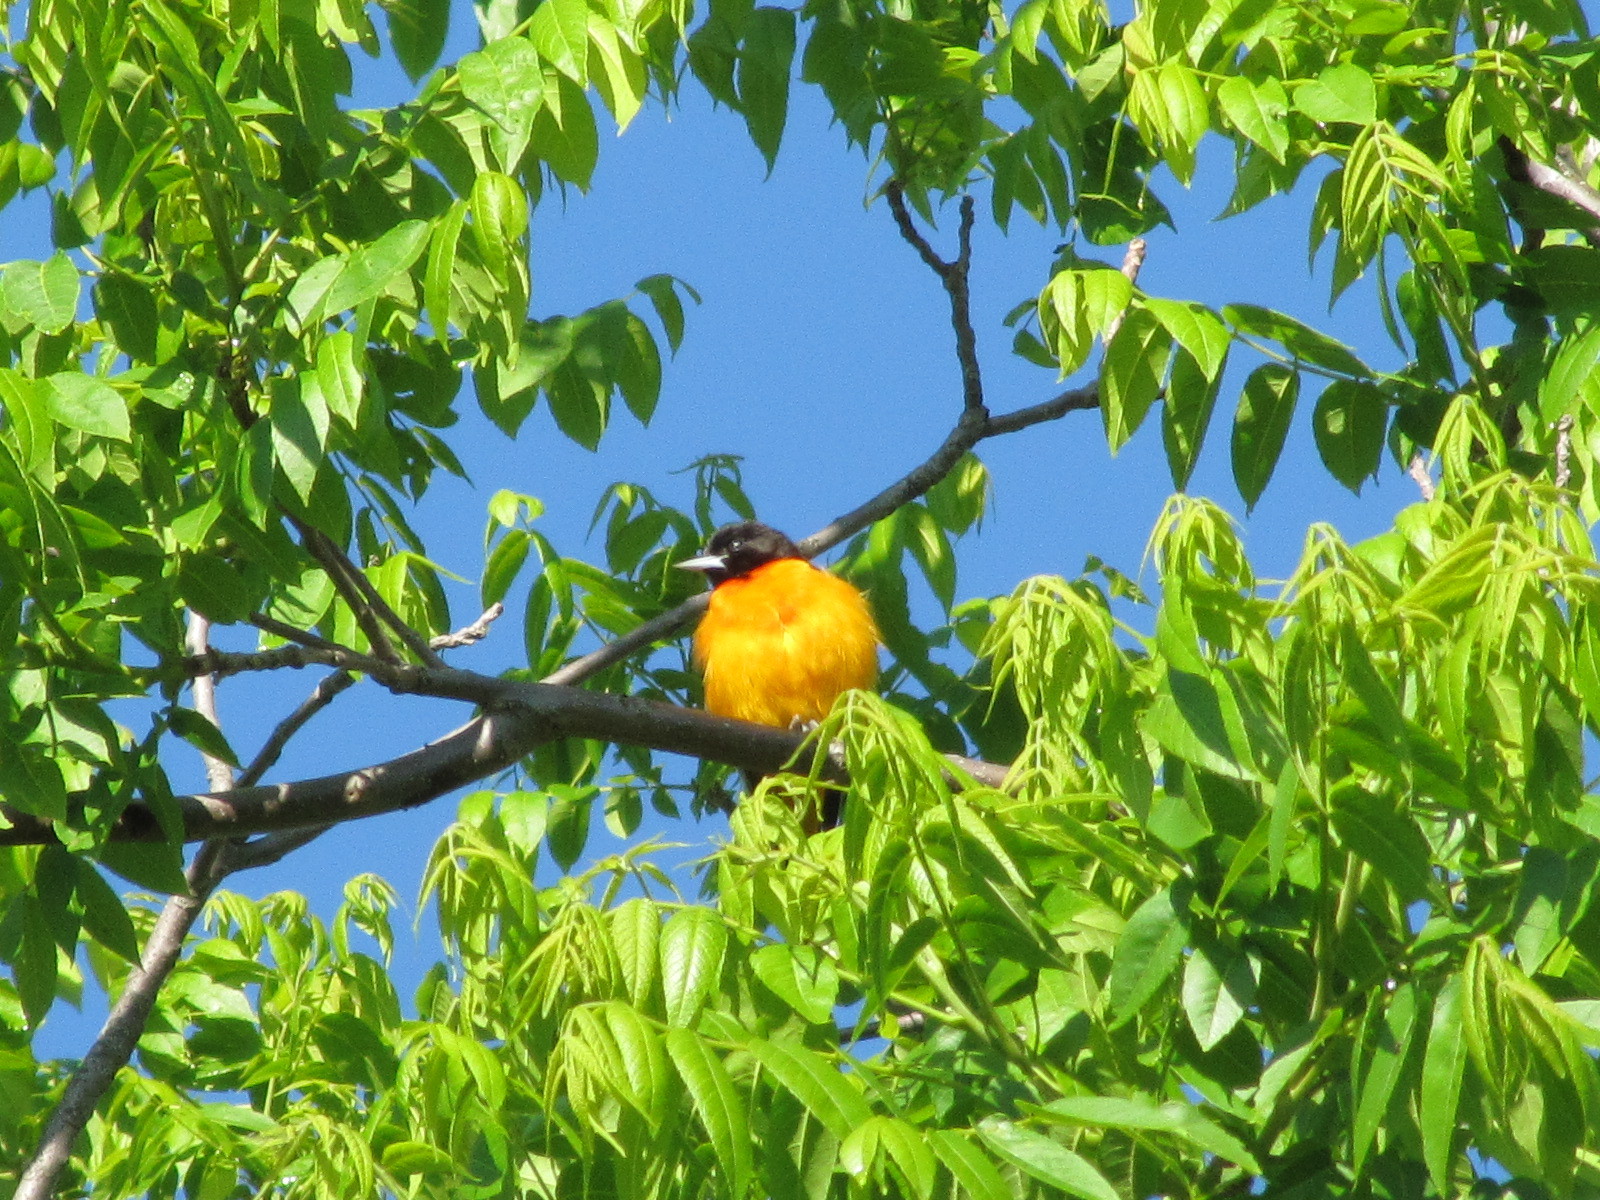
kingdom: Animalia
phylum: Chordata
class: Aves
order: Passeriformes
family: Icteridae
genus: Icterus
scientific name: Icterus galbula
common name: Baltimore oriole
